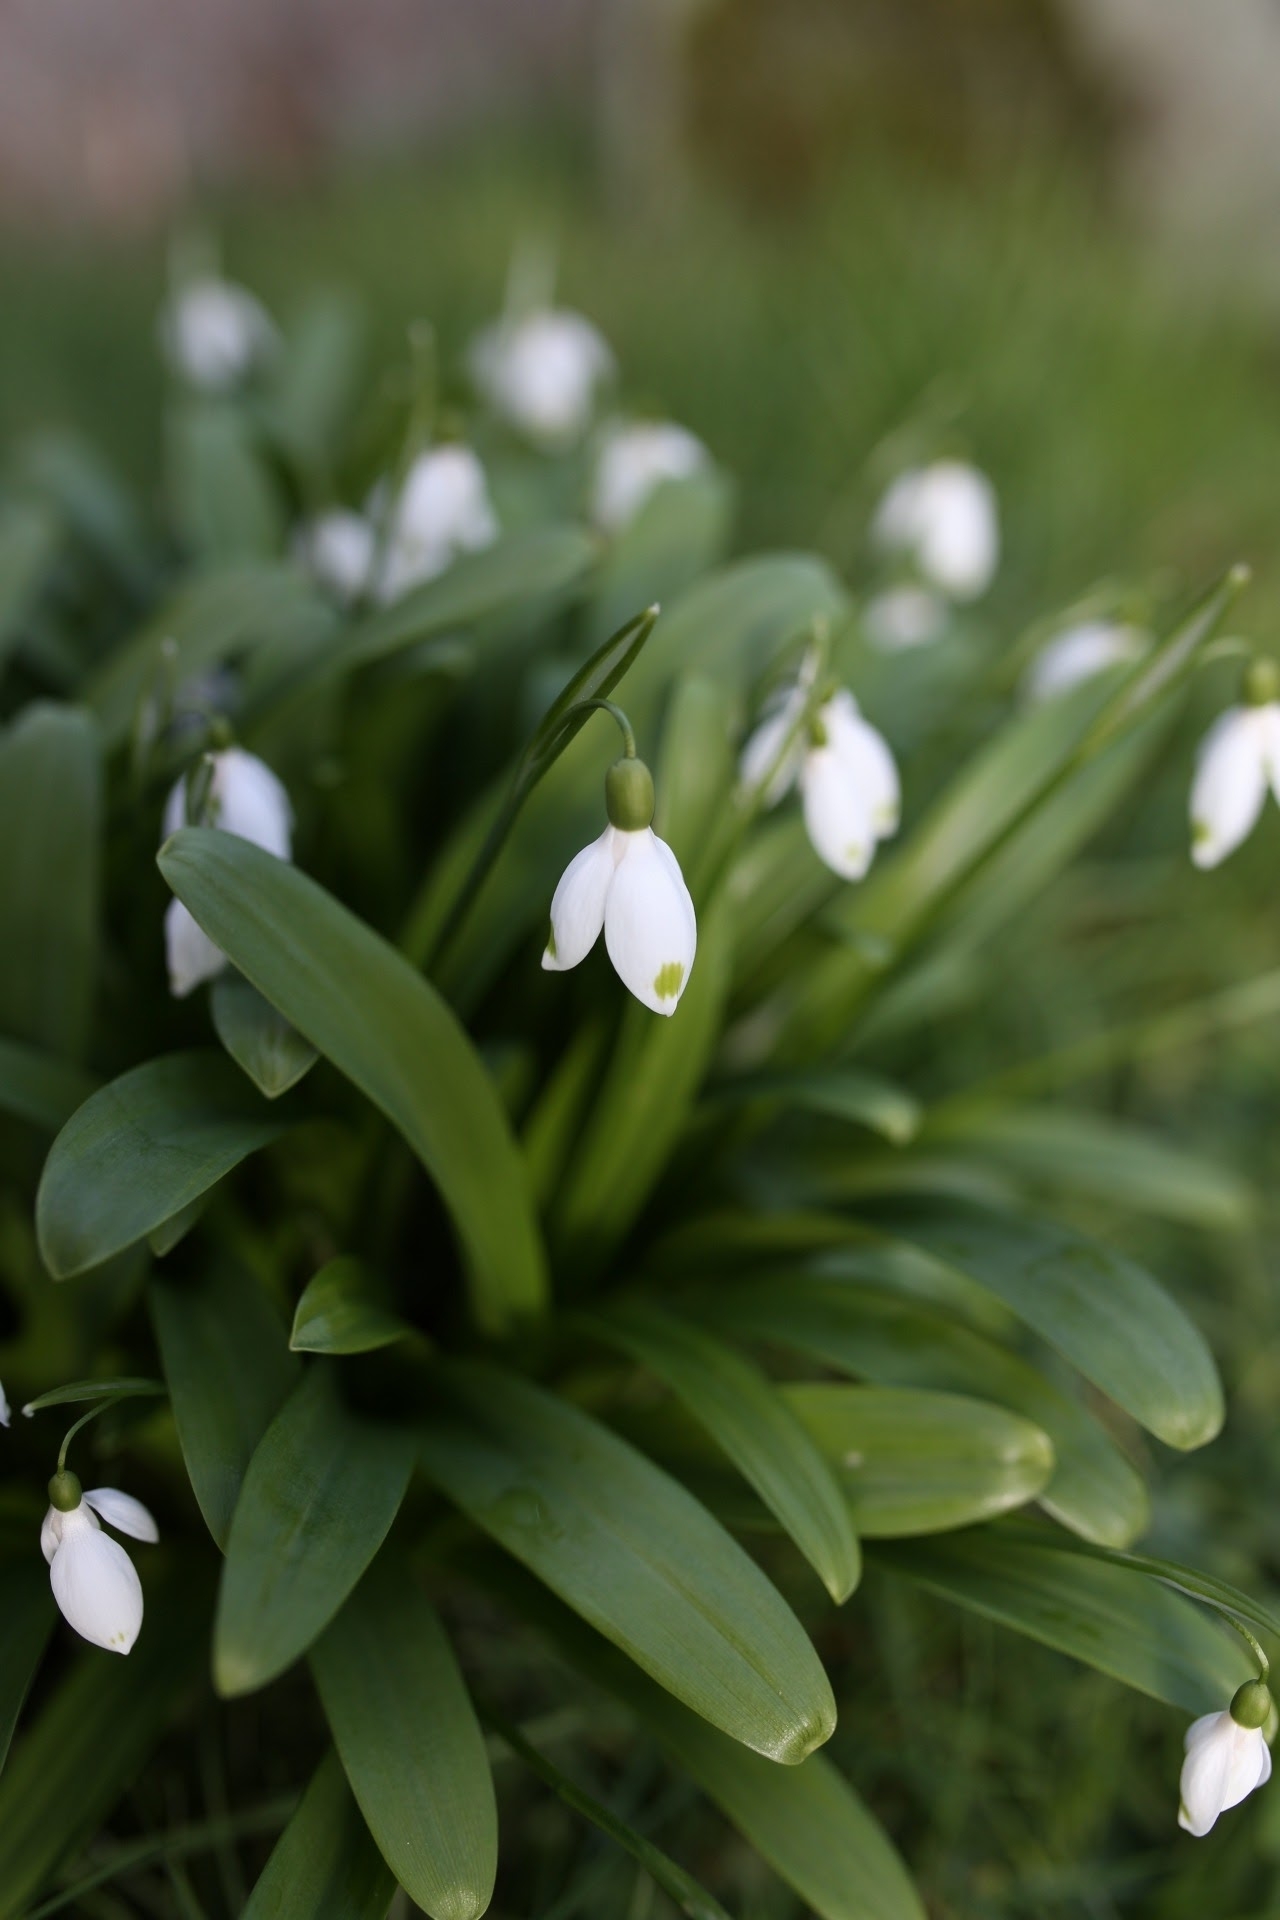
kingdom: Plantae
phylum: Tracheophyta
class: Liliopsida
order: Asparagales
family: Amaryllidaceae
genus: Galanthus
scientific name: Galanthus woronowii
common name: Green snowdrop
